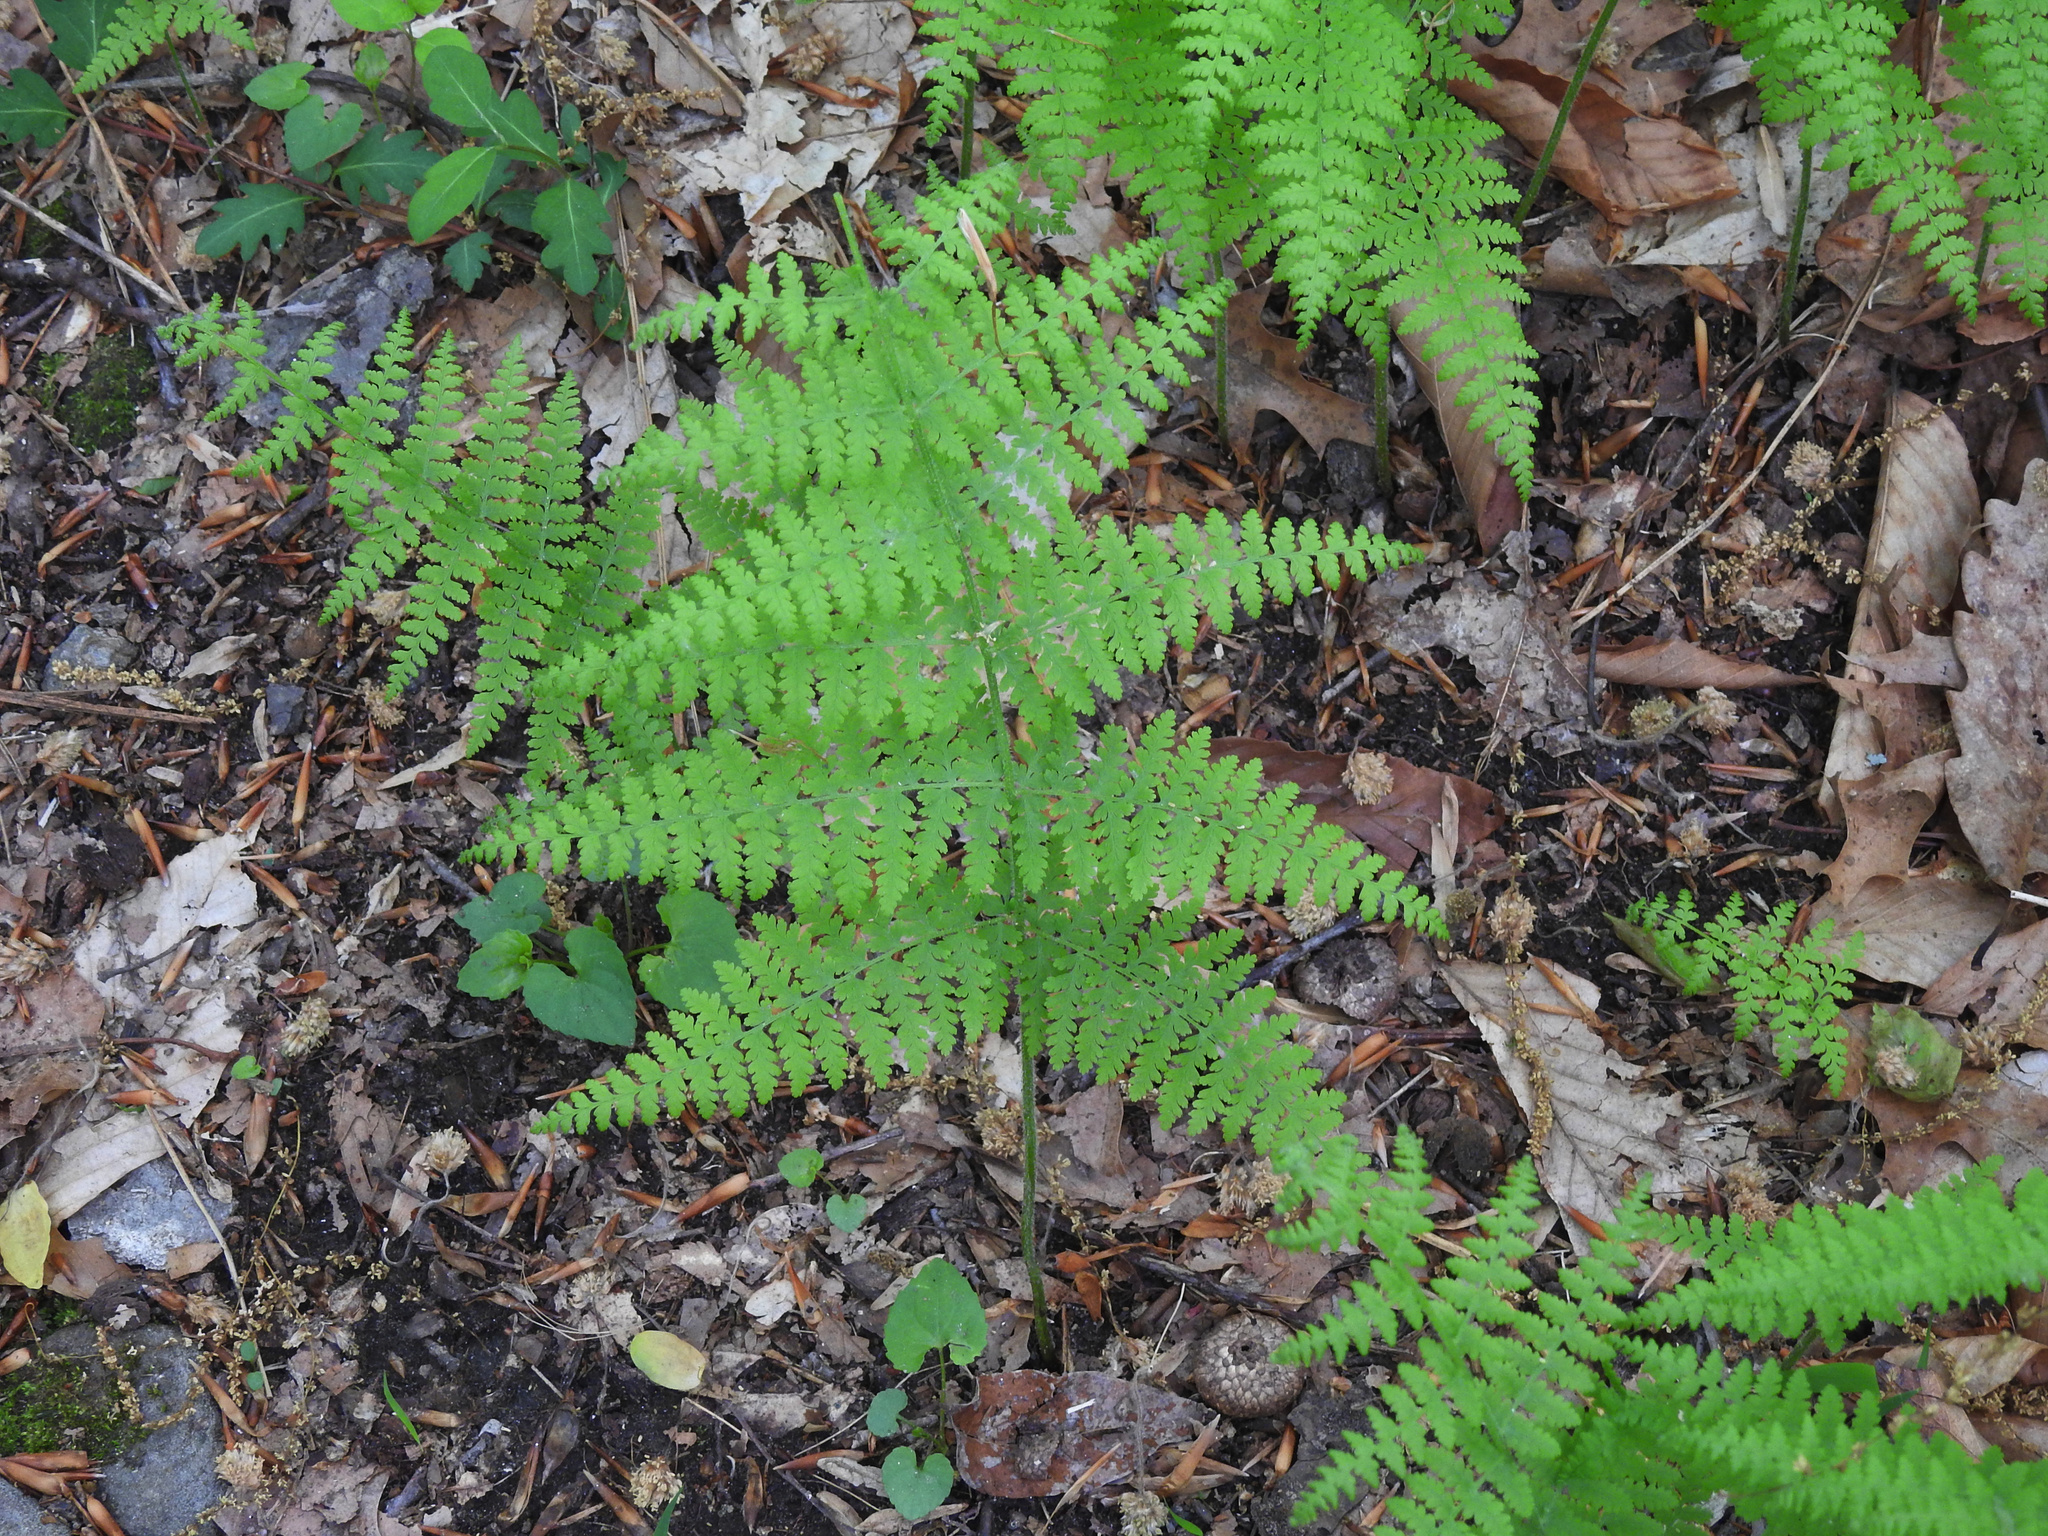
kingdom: Plantae
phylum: Tracheophyta
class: Polypodiopsida
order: Polypodiales
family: Dennstaedtiaceae
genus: Sitobolium
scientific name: Sitobolium punctilobum
